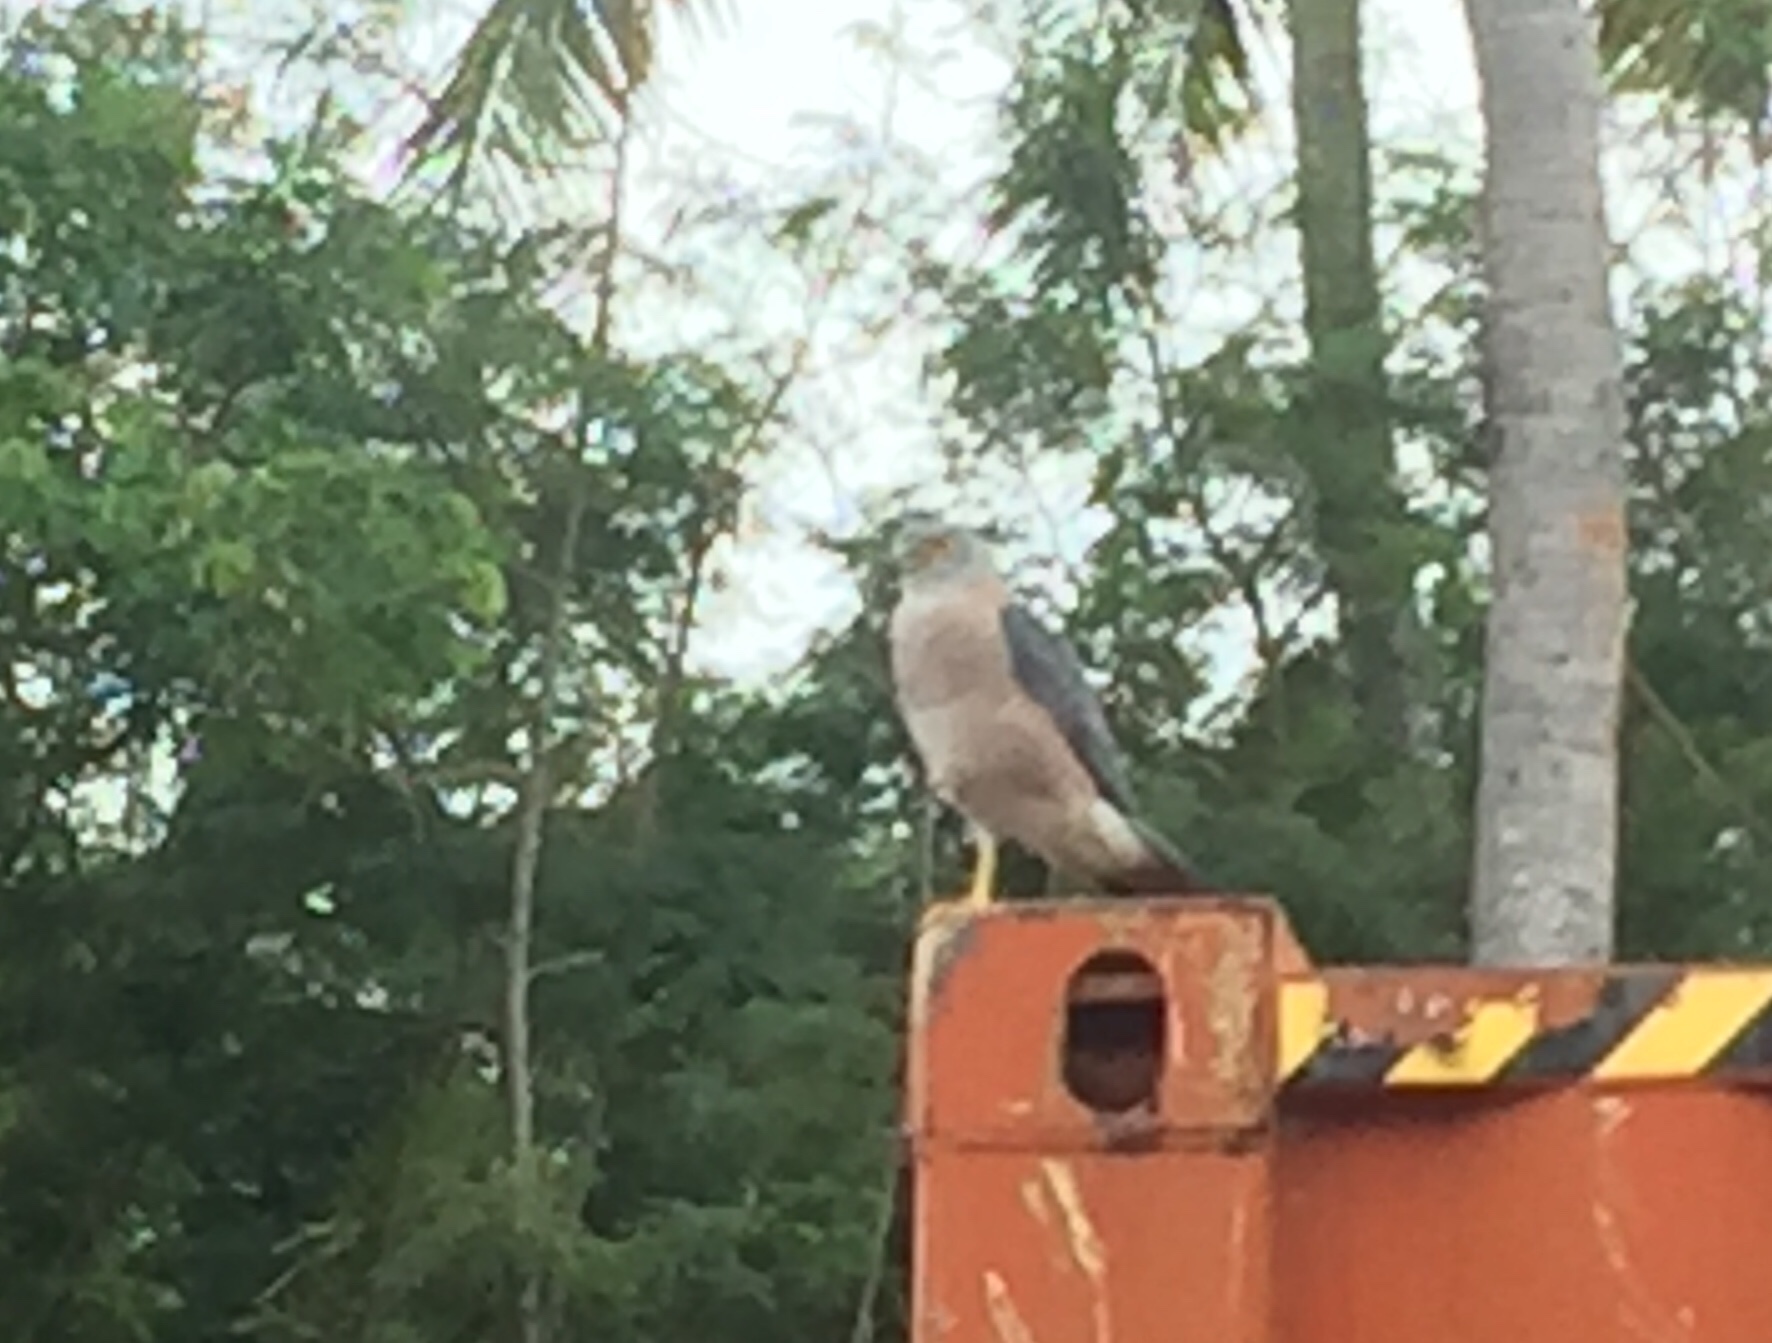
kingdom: Animalia
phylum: Chordata
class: Aves
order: Accipitriformes
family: Accipitridae
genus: Accipiter
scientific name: Accipiter rufitorques
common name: Fiji goshawk
